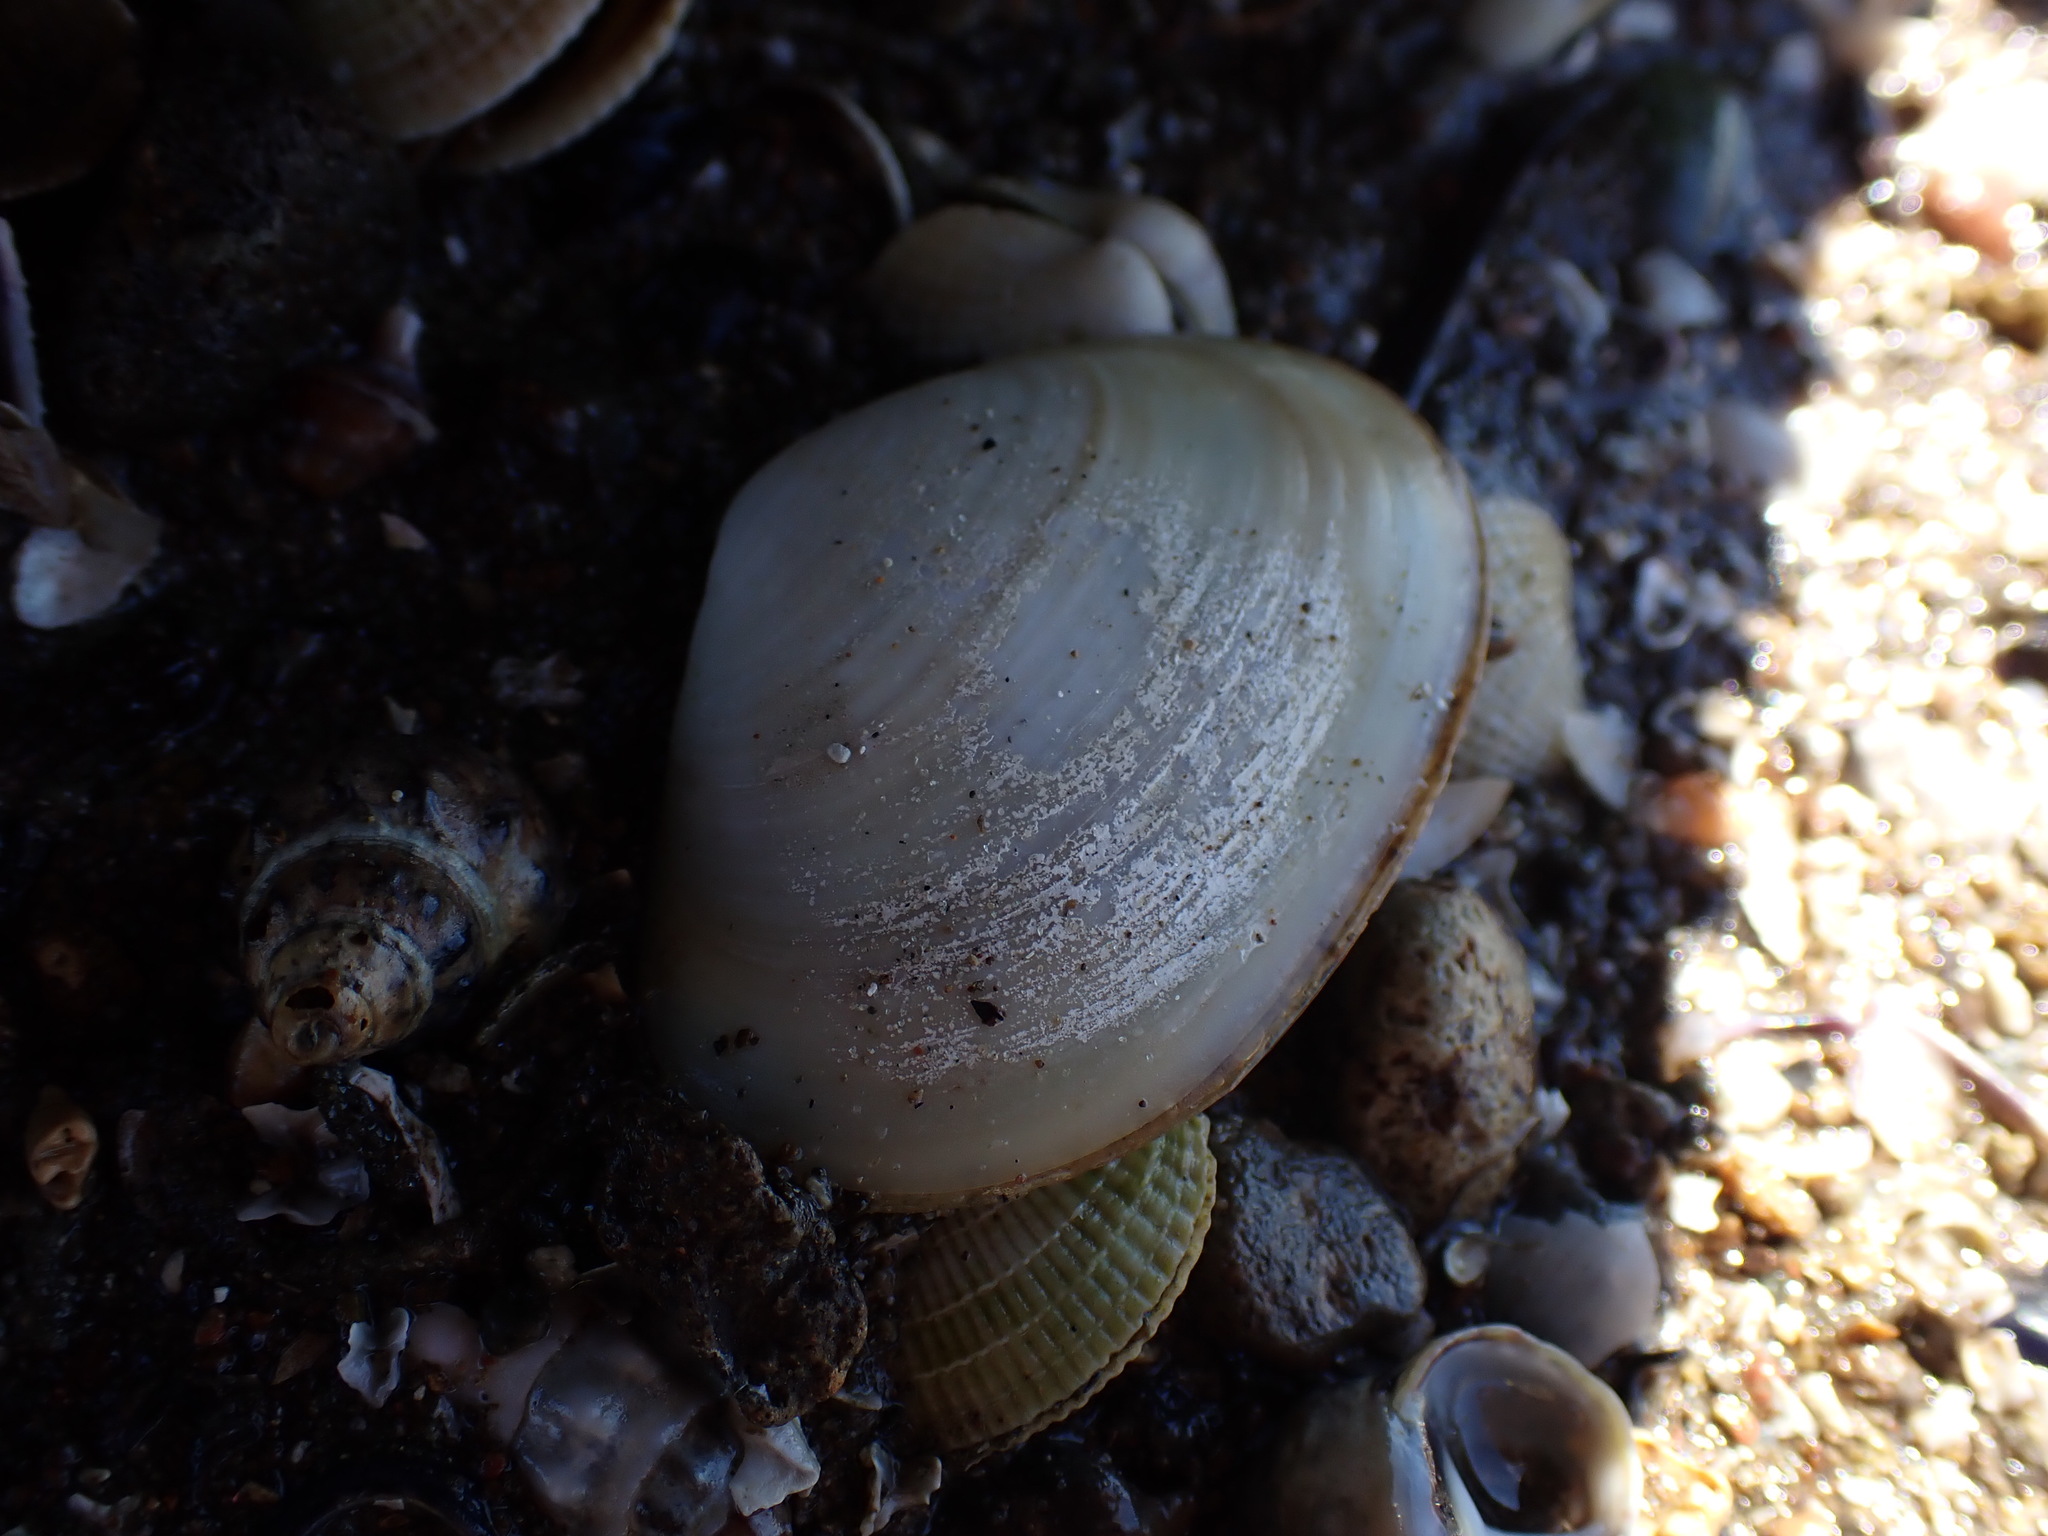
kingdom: Animalia
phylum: Mollusca
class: Bivalvia
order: Venerida
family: Mesodesmatidae
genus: Paphies
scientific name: Paphies australis
